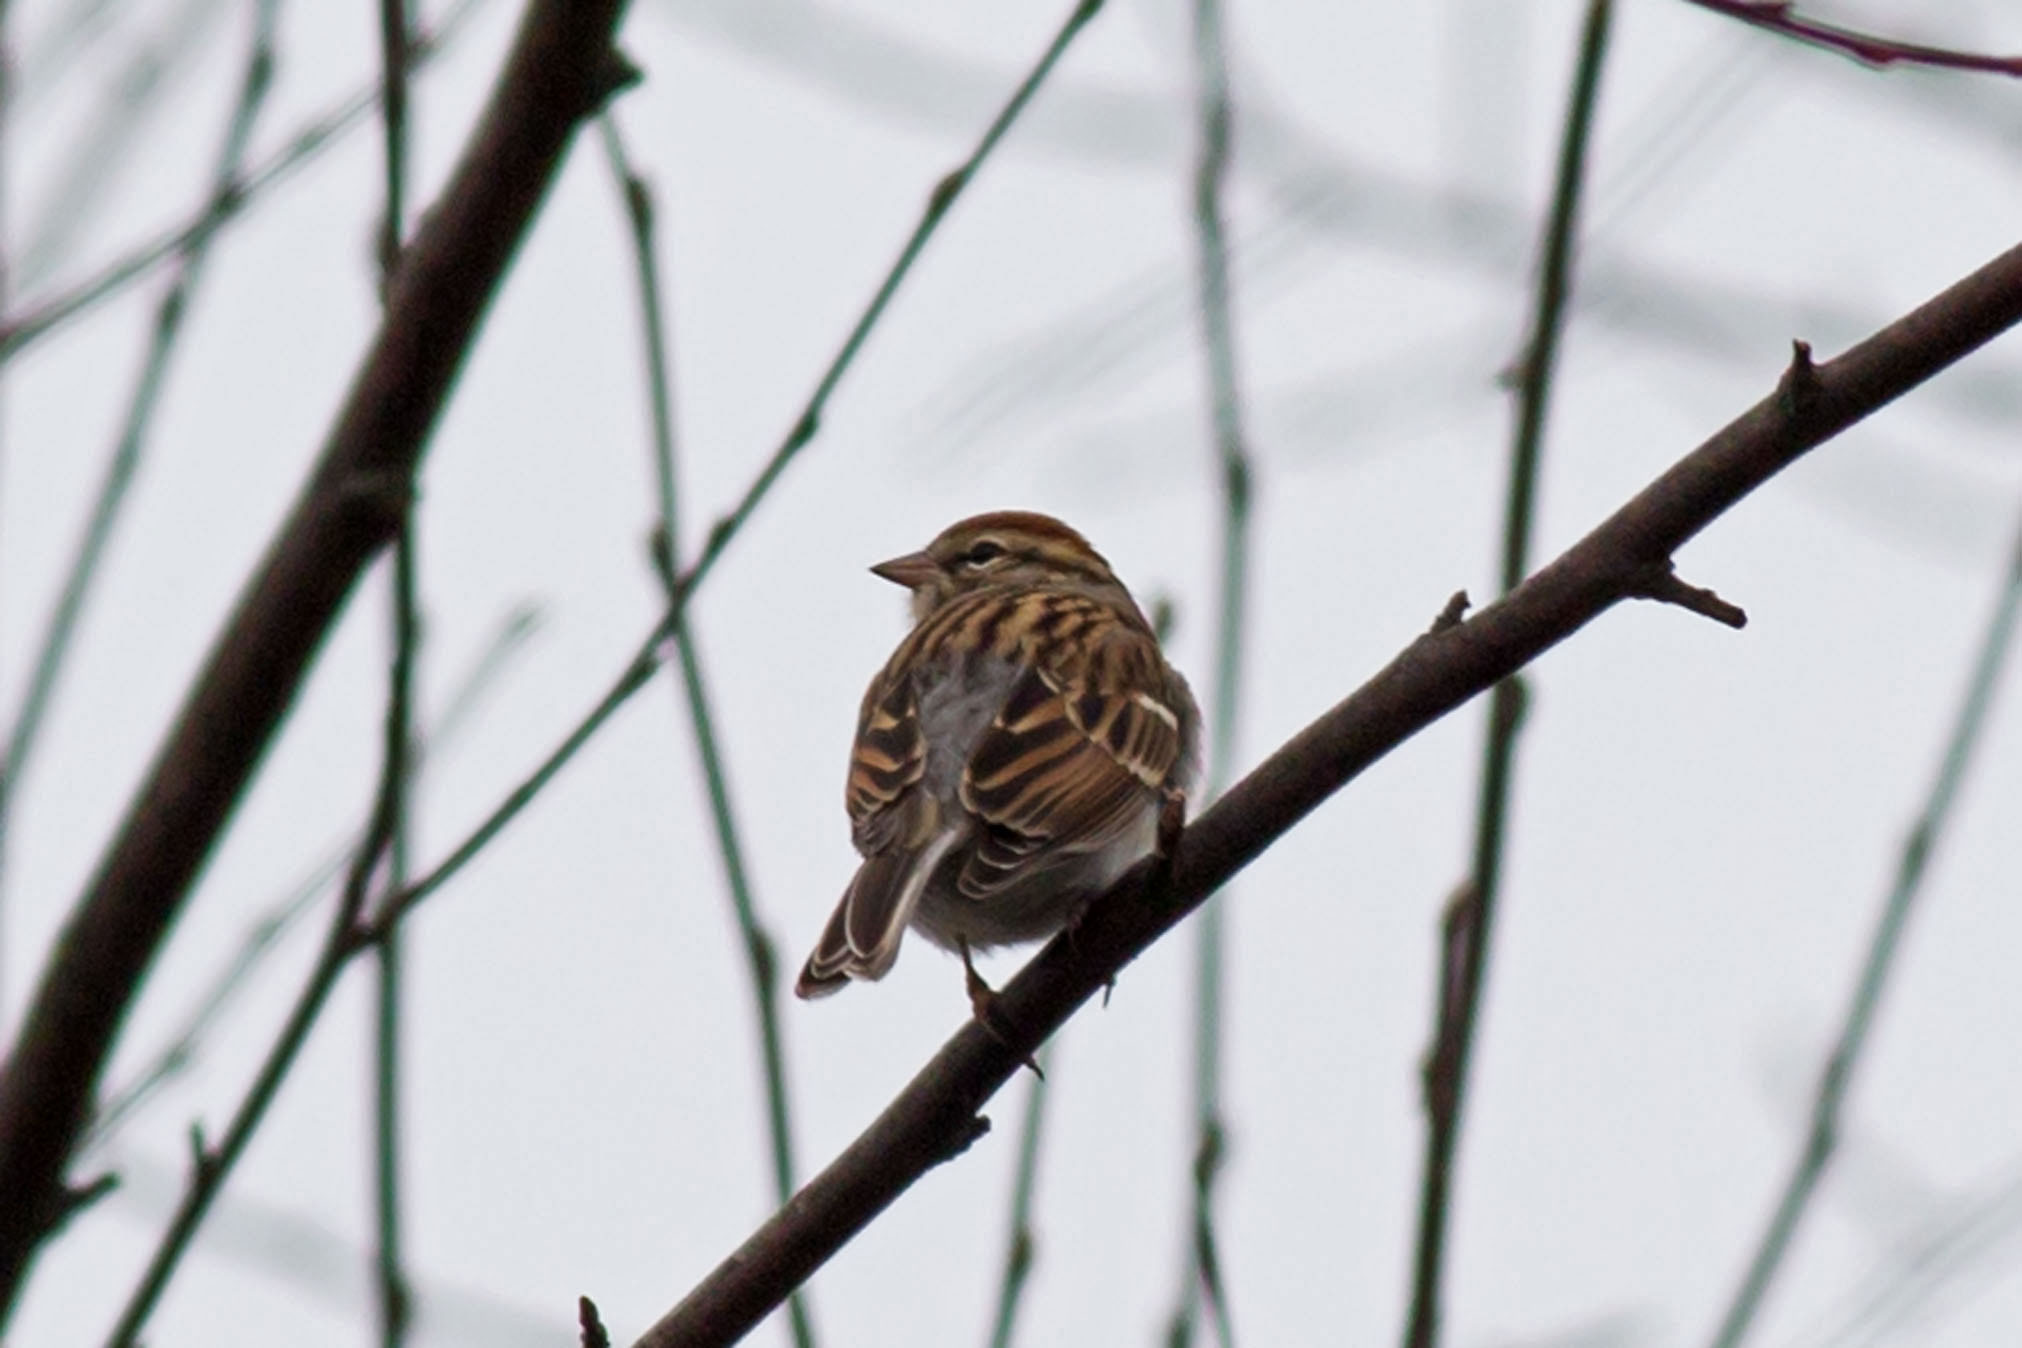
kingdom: Animalia
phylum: Chordata
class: Aves
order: Passeriformes
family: Passerellidae
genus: Spizella
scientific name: Spizella passerina
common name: Chipping sparrow
